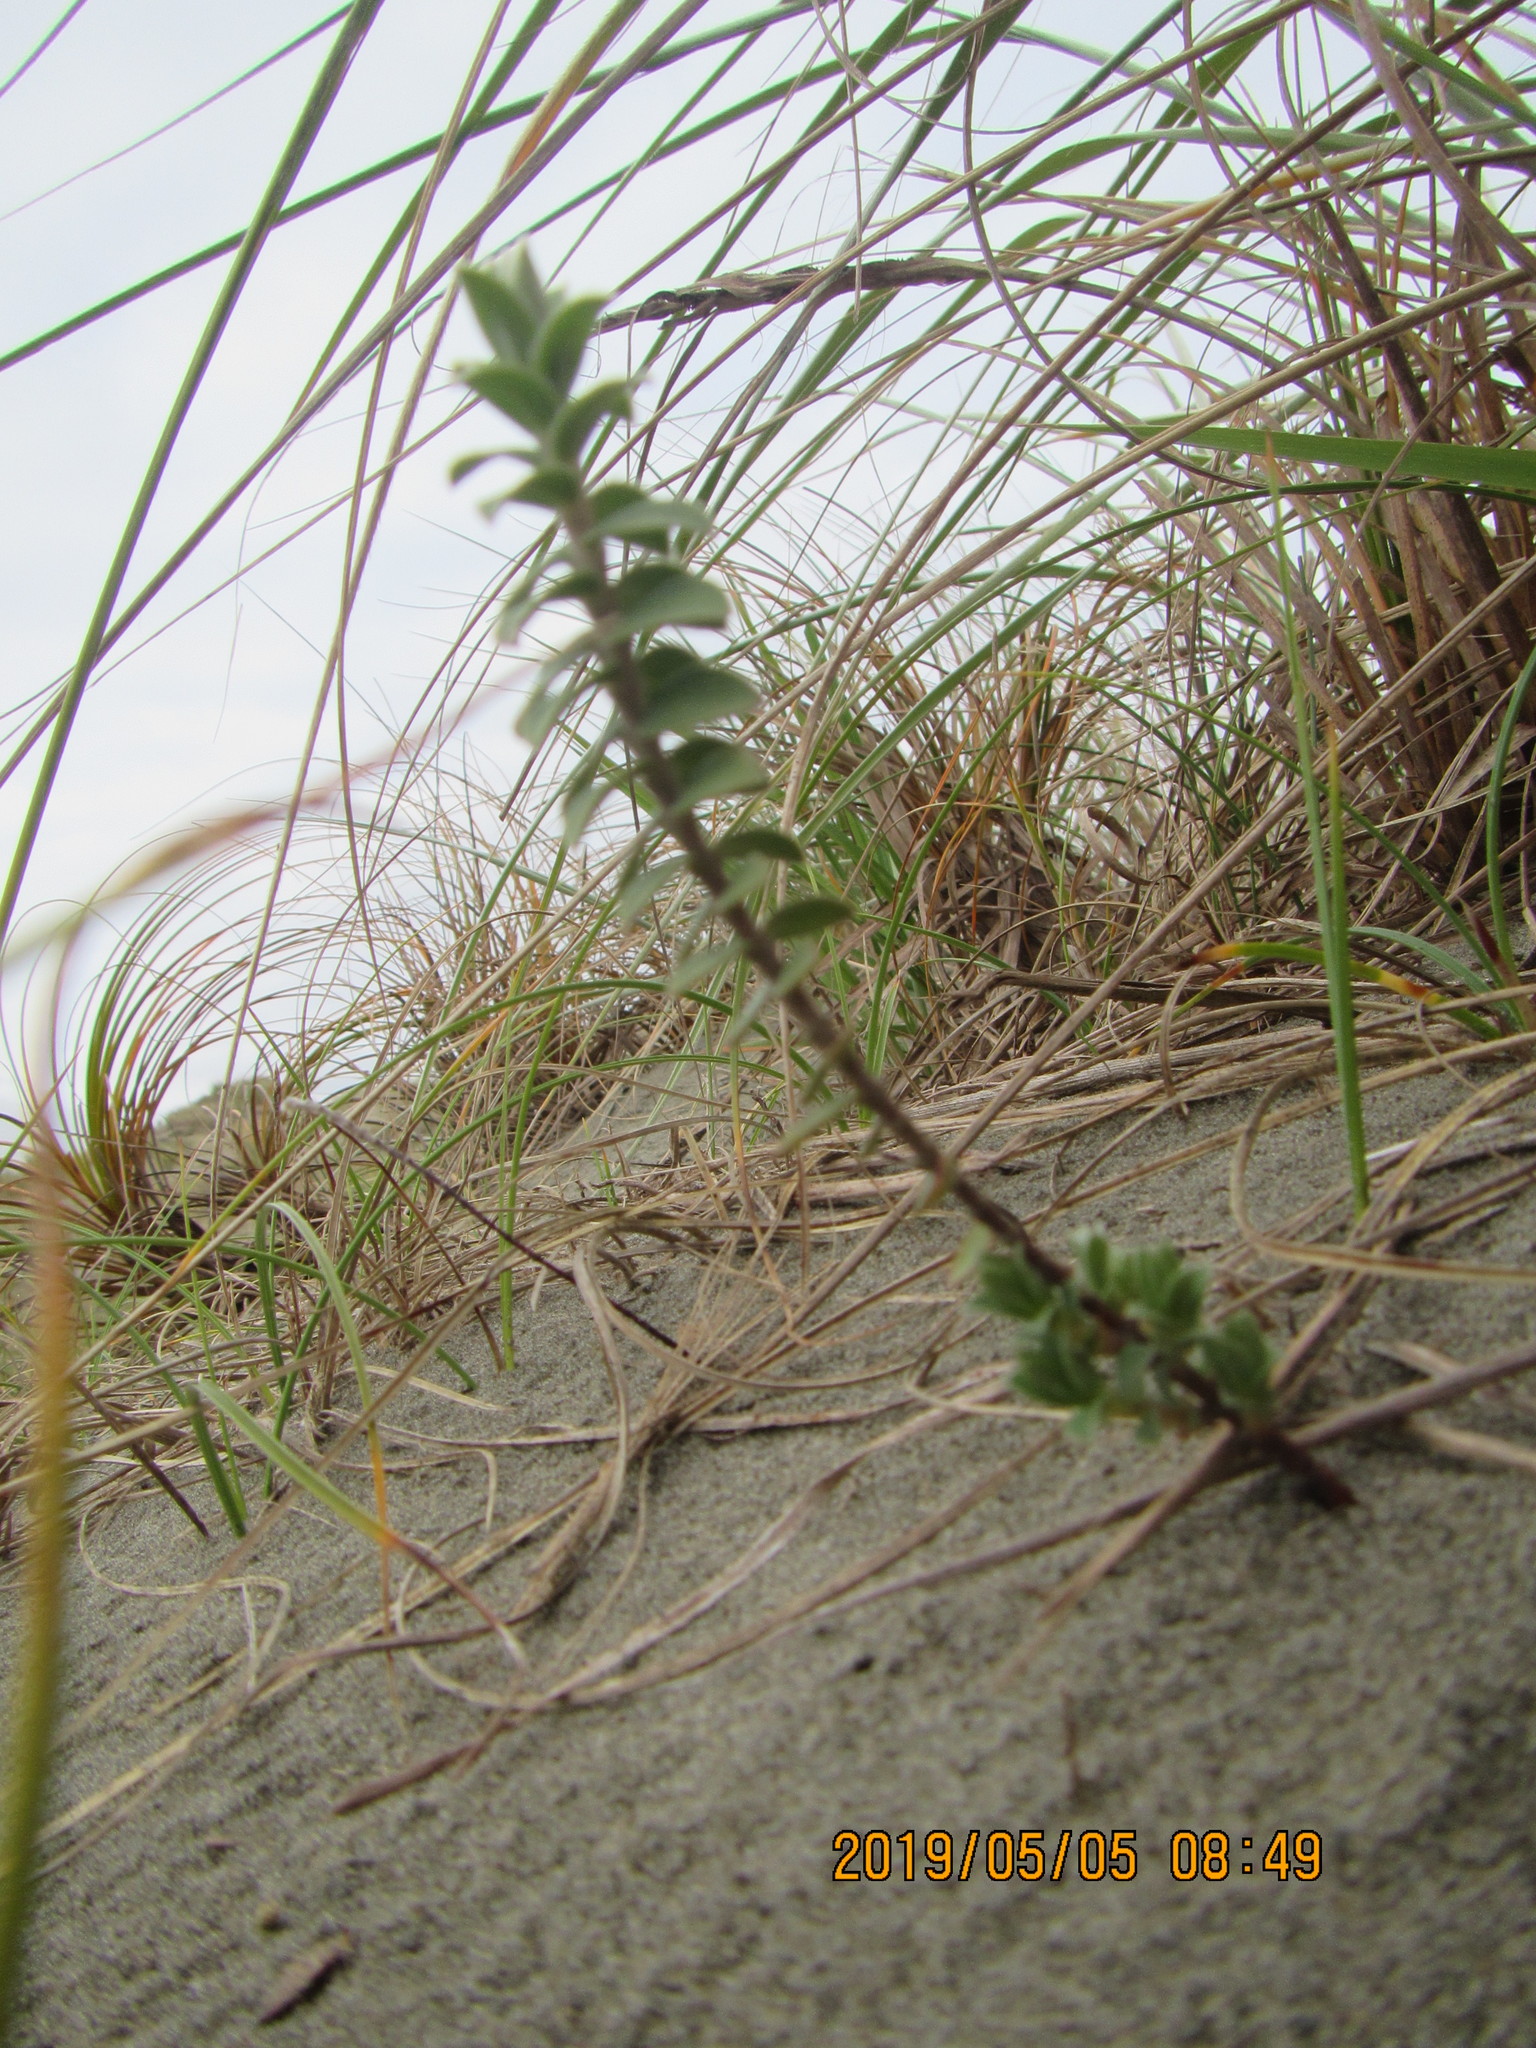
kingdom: Plantae
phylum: Tracheophyta
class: Magnoliopsida
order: Malvales
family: Thymelaeaceae
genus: Pimelea
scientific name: Pimelea villosa
